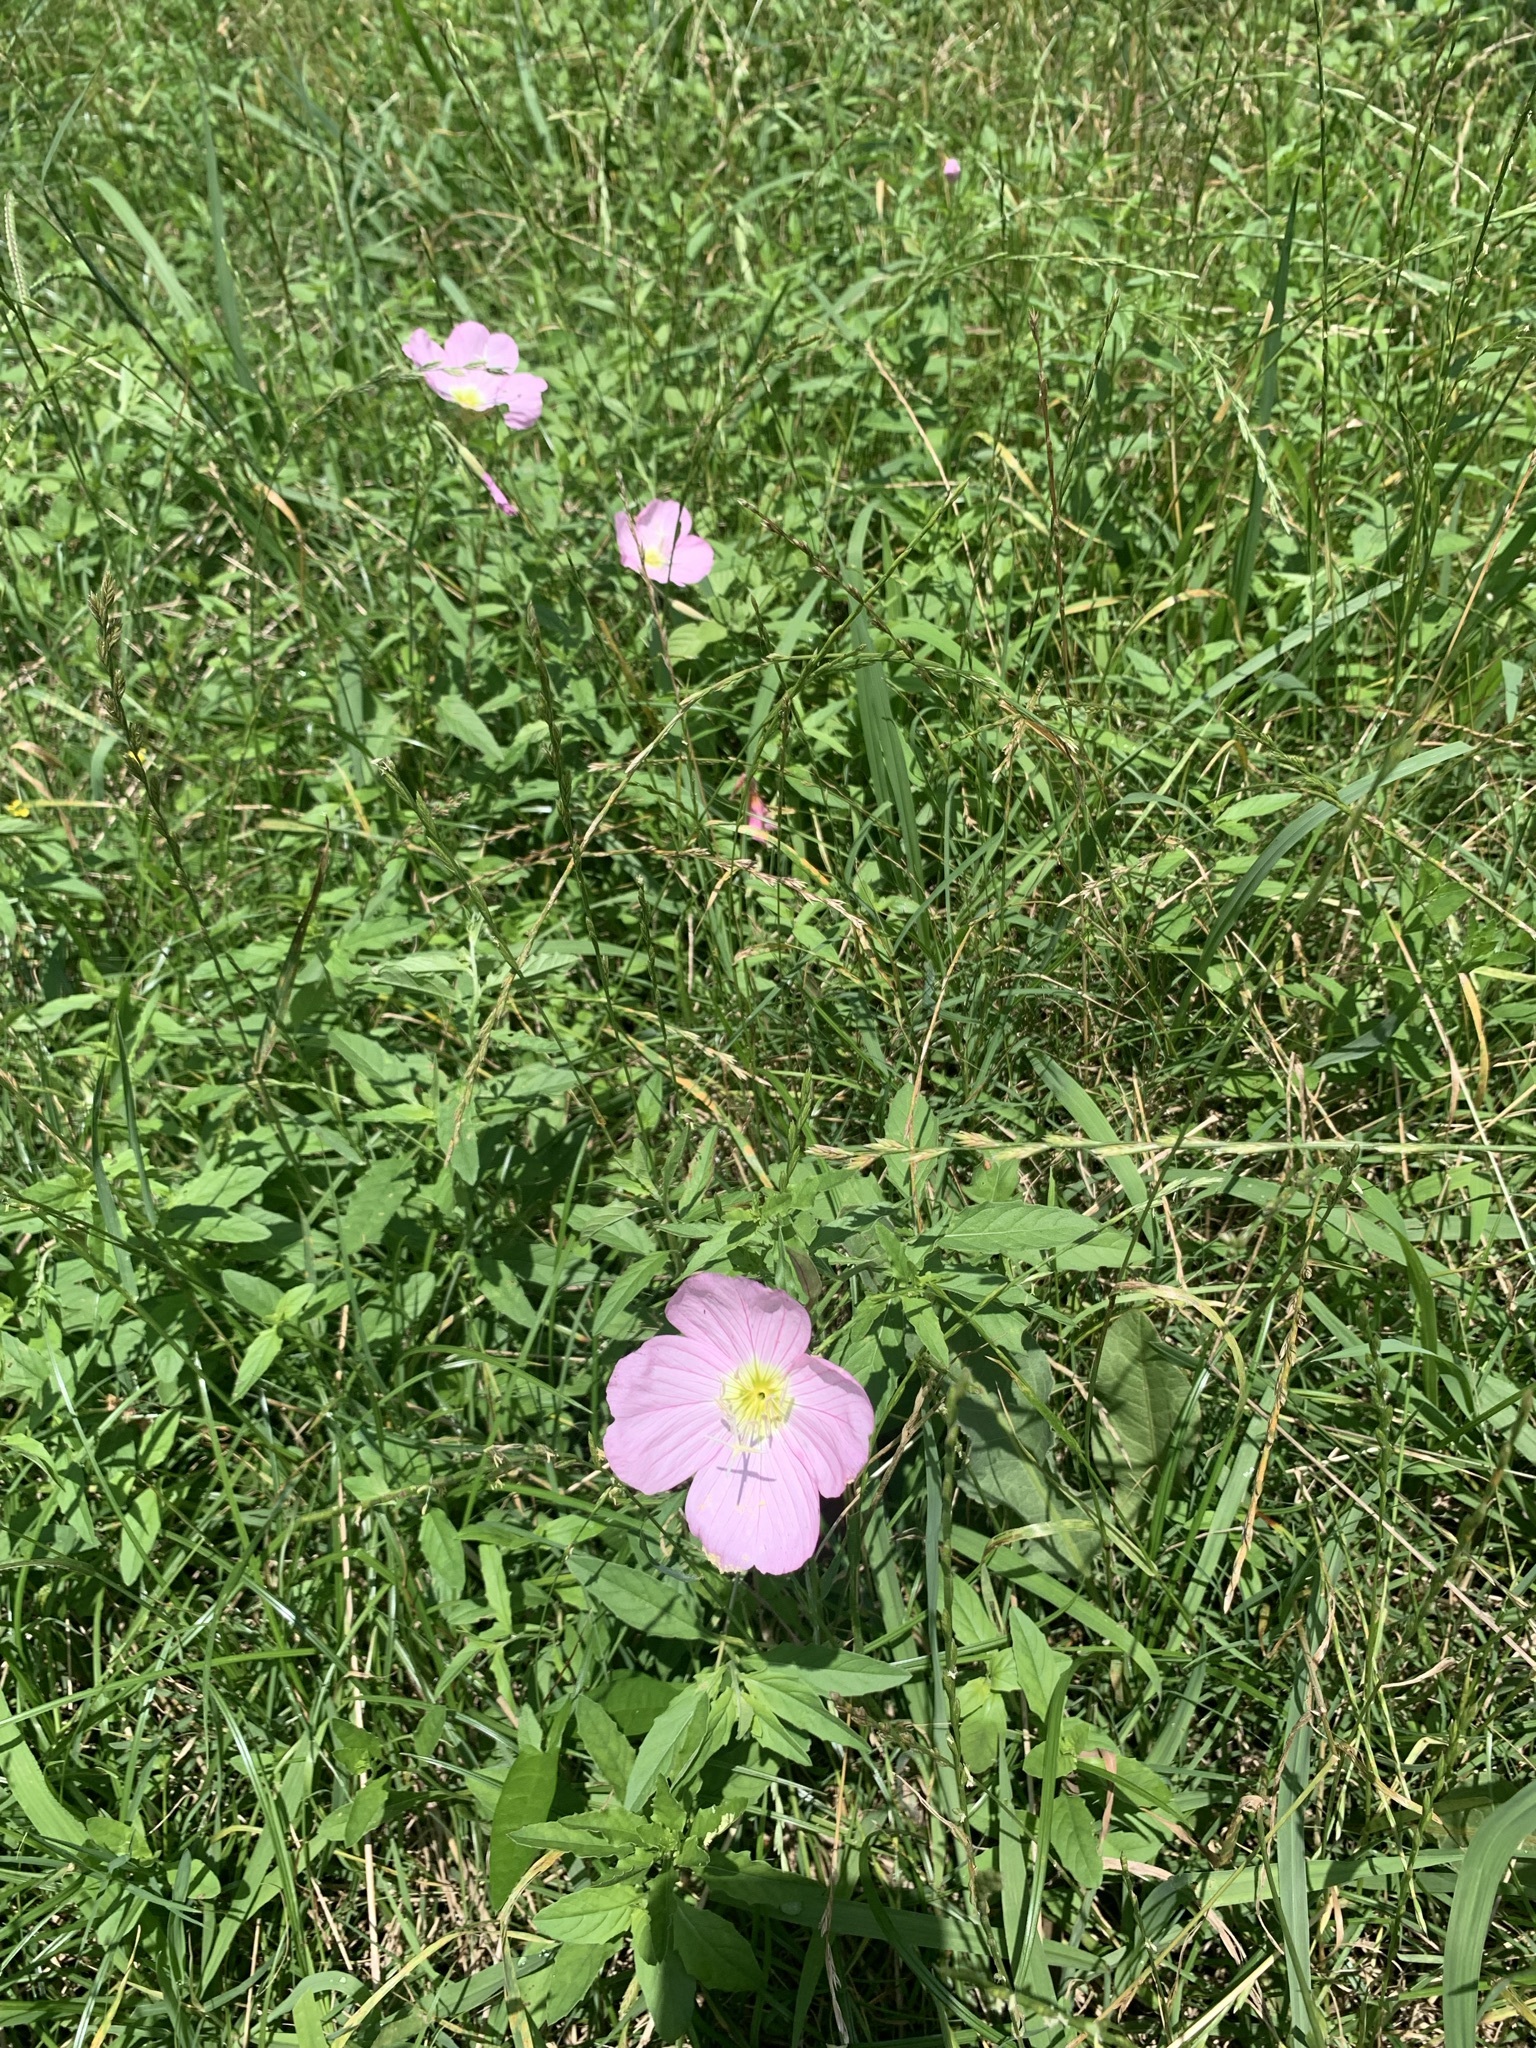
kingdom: Plantae
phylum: Tracheophyta
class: Magnoliopsida
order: Myrtales
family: Onagraceae
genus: Oenothera
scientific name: Oenothera speciosa
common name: White evening-primrose
